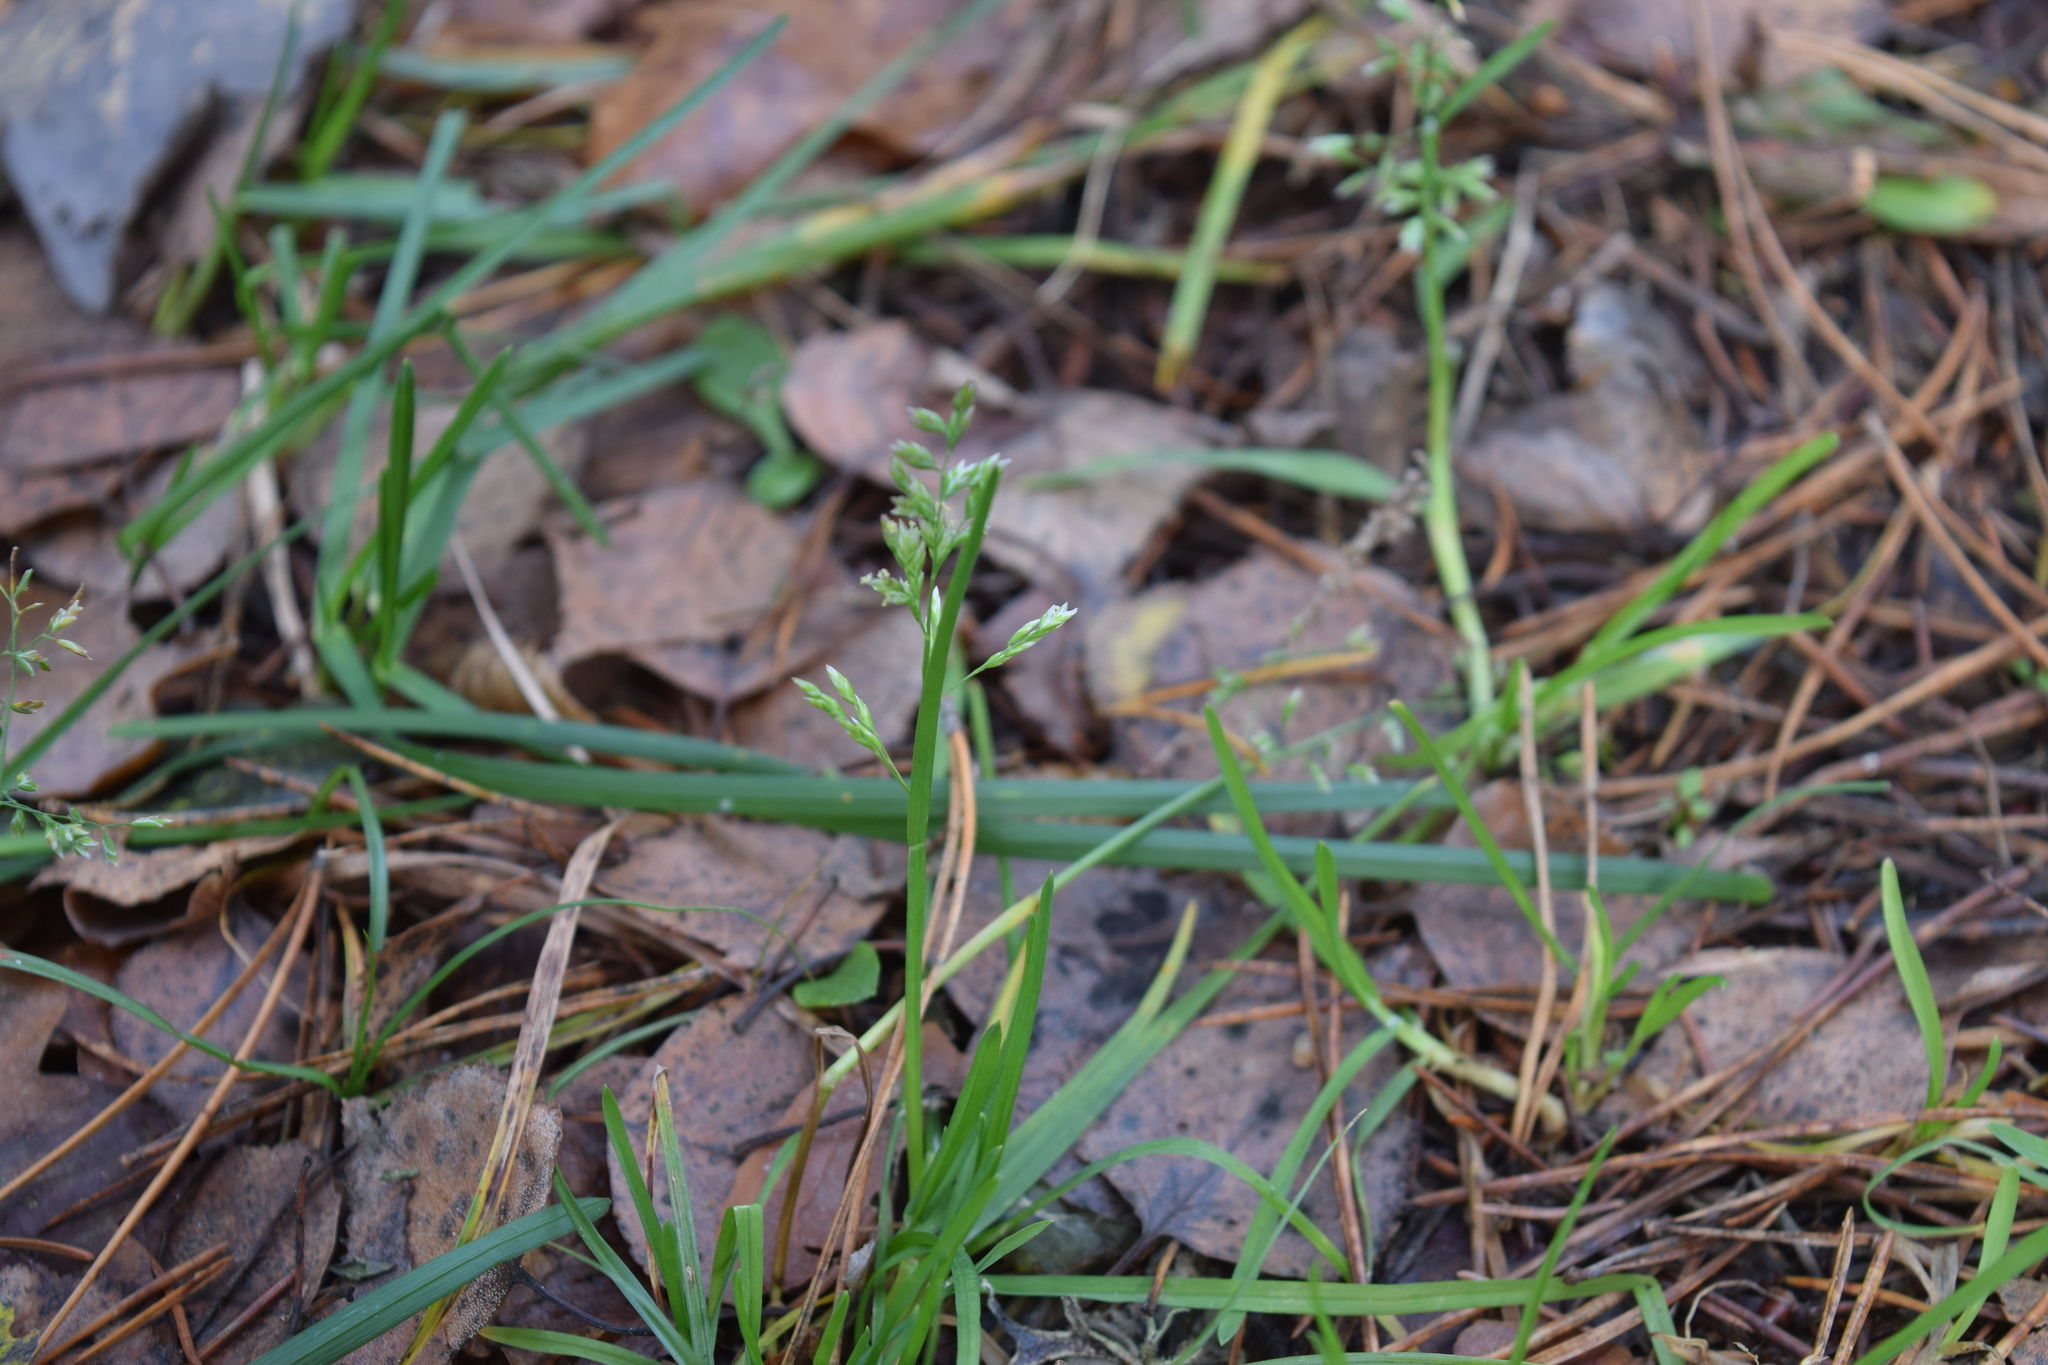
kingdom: Plantae
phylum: Tracheophyta
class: Liliopsida
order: Poales
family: Poaceae
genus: Poa
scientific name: Poa annua
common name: Annual bluegrass
